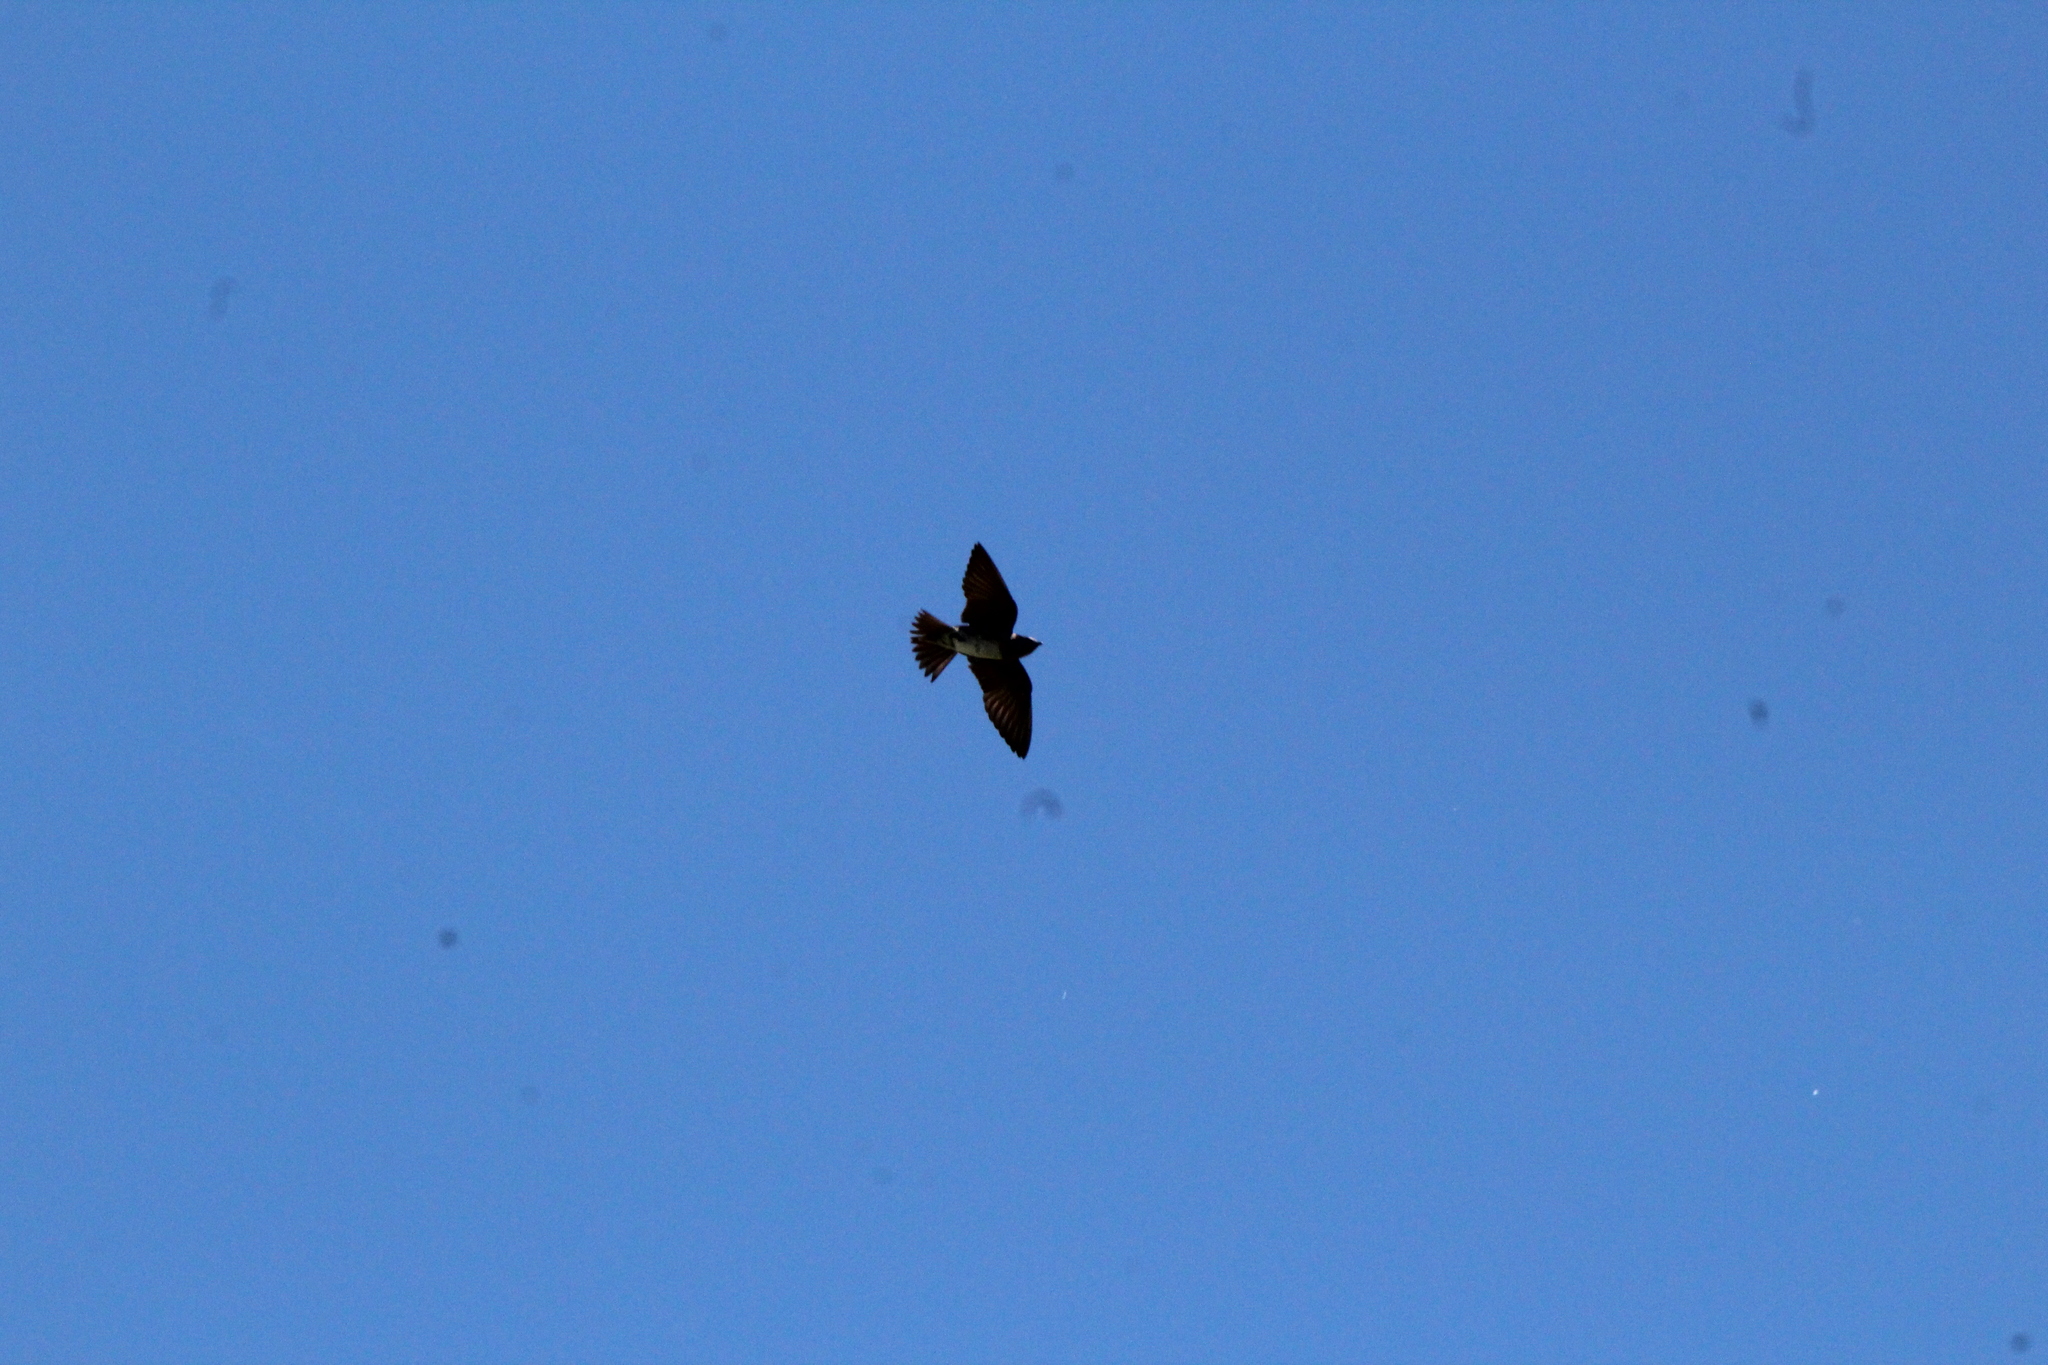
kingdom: Animalia
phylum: Chordata
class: Aves
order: Passeriformes
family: Hirundinidae
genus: Progne
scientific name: Progne subis
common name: Purple martin
